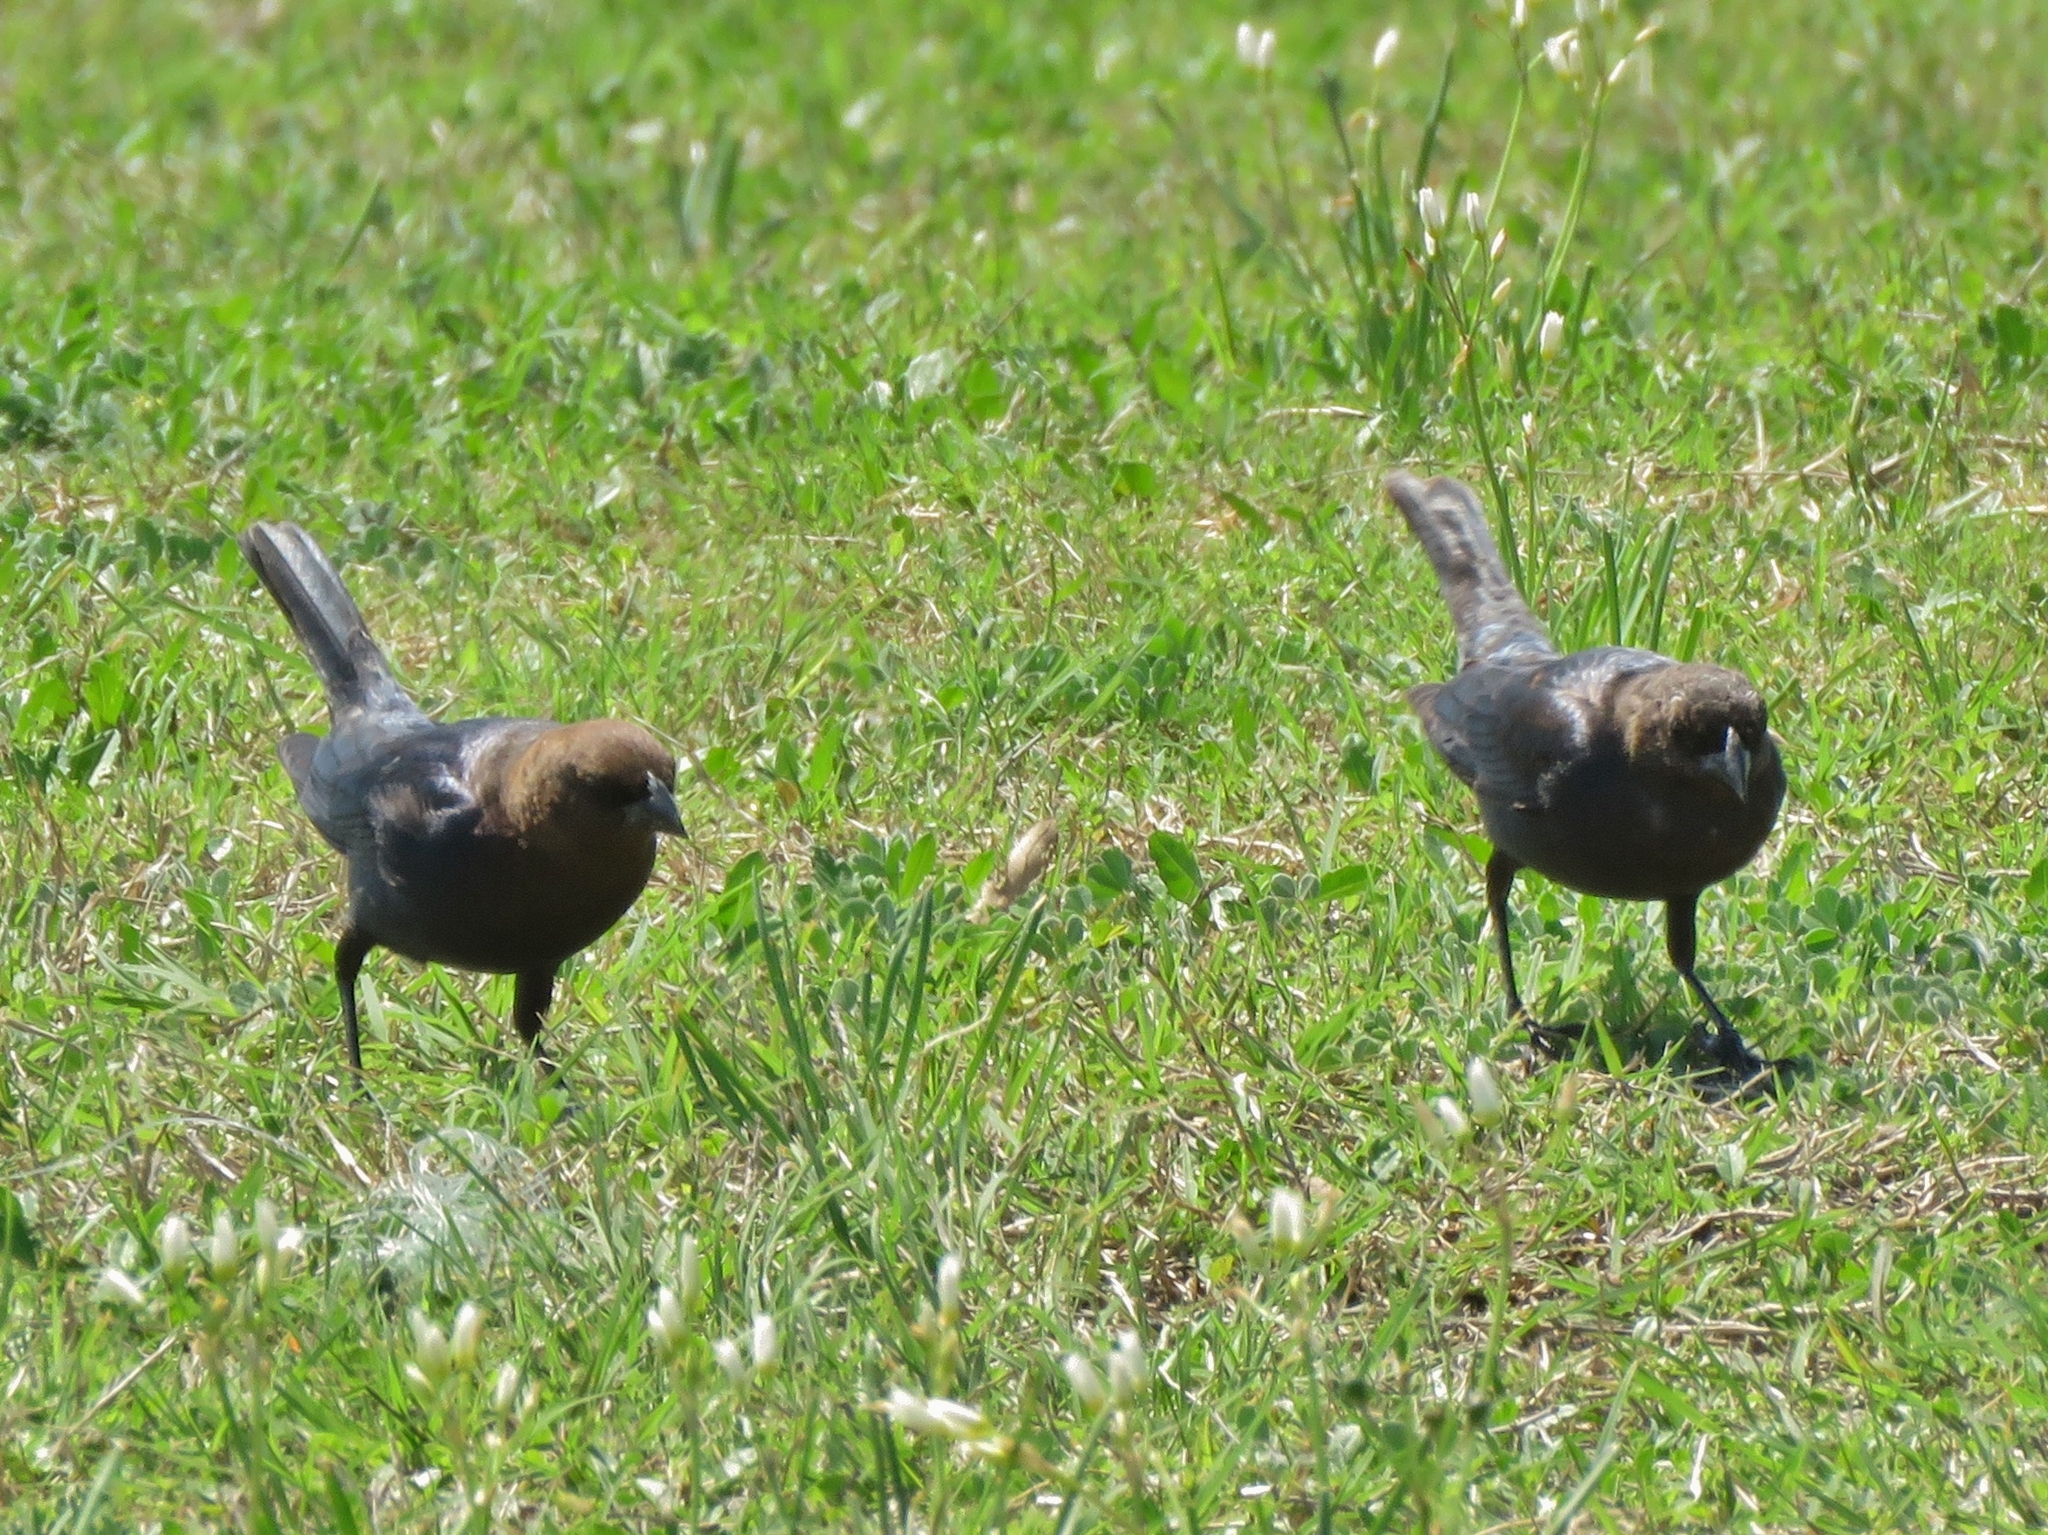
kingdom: Animalia
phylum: Chordata
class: Aves
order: Passeriformes
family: Icteridae
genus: Molothrus
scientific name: Molothrus ater
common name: Brown-headed cowbird
